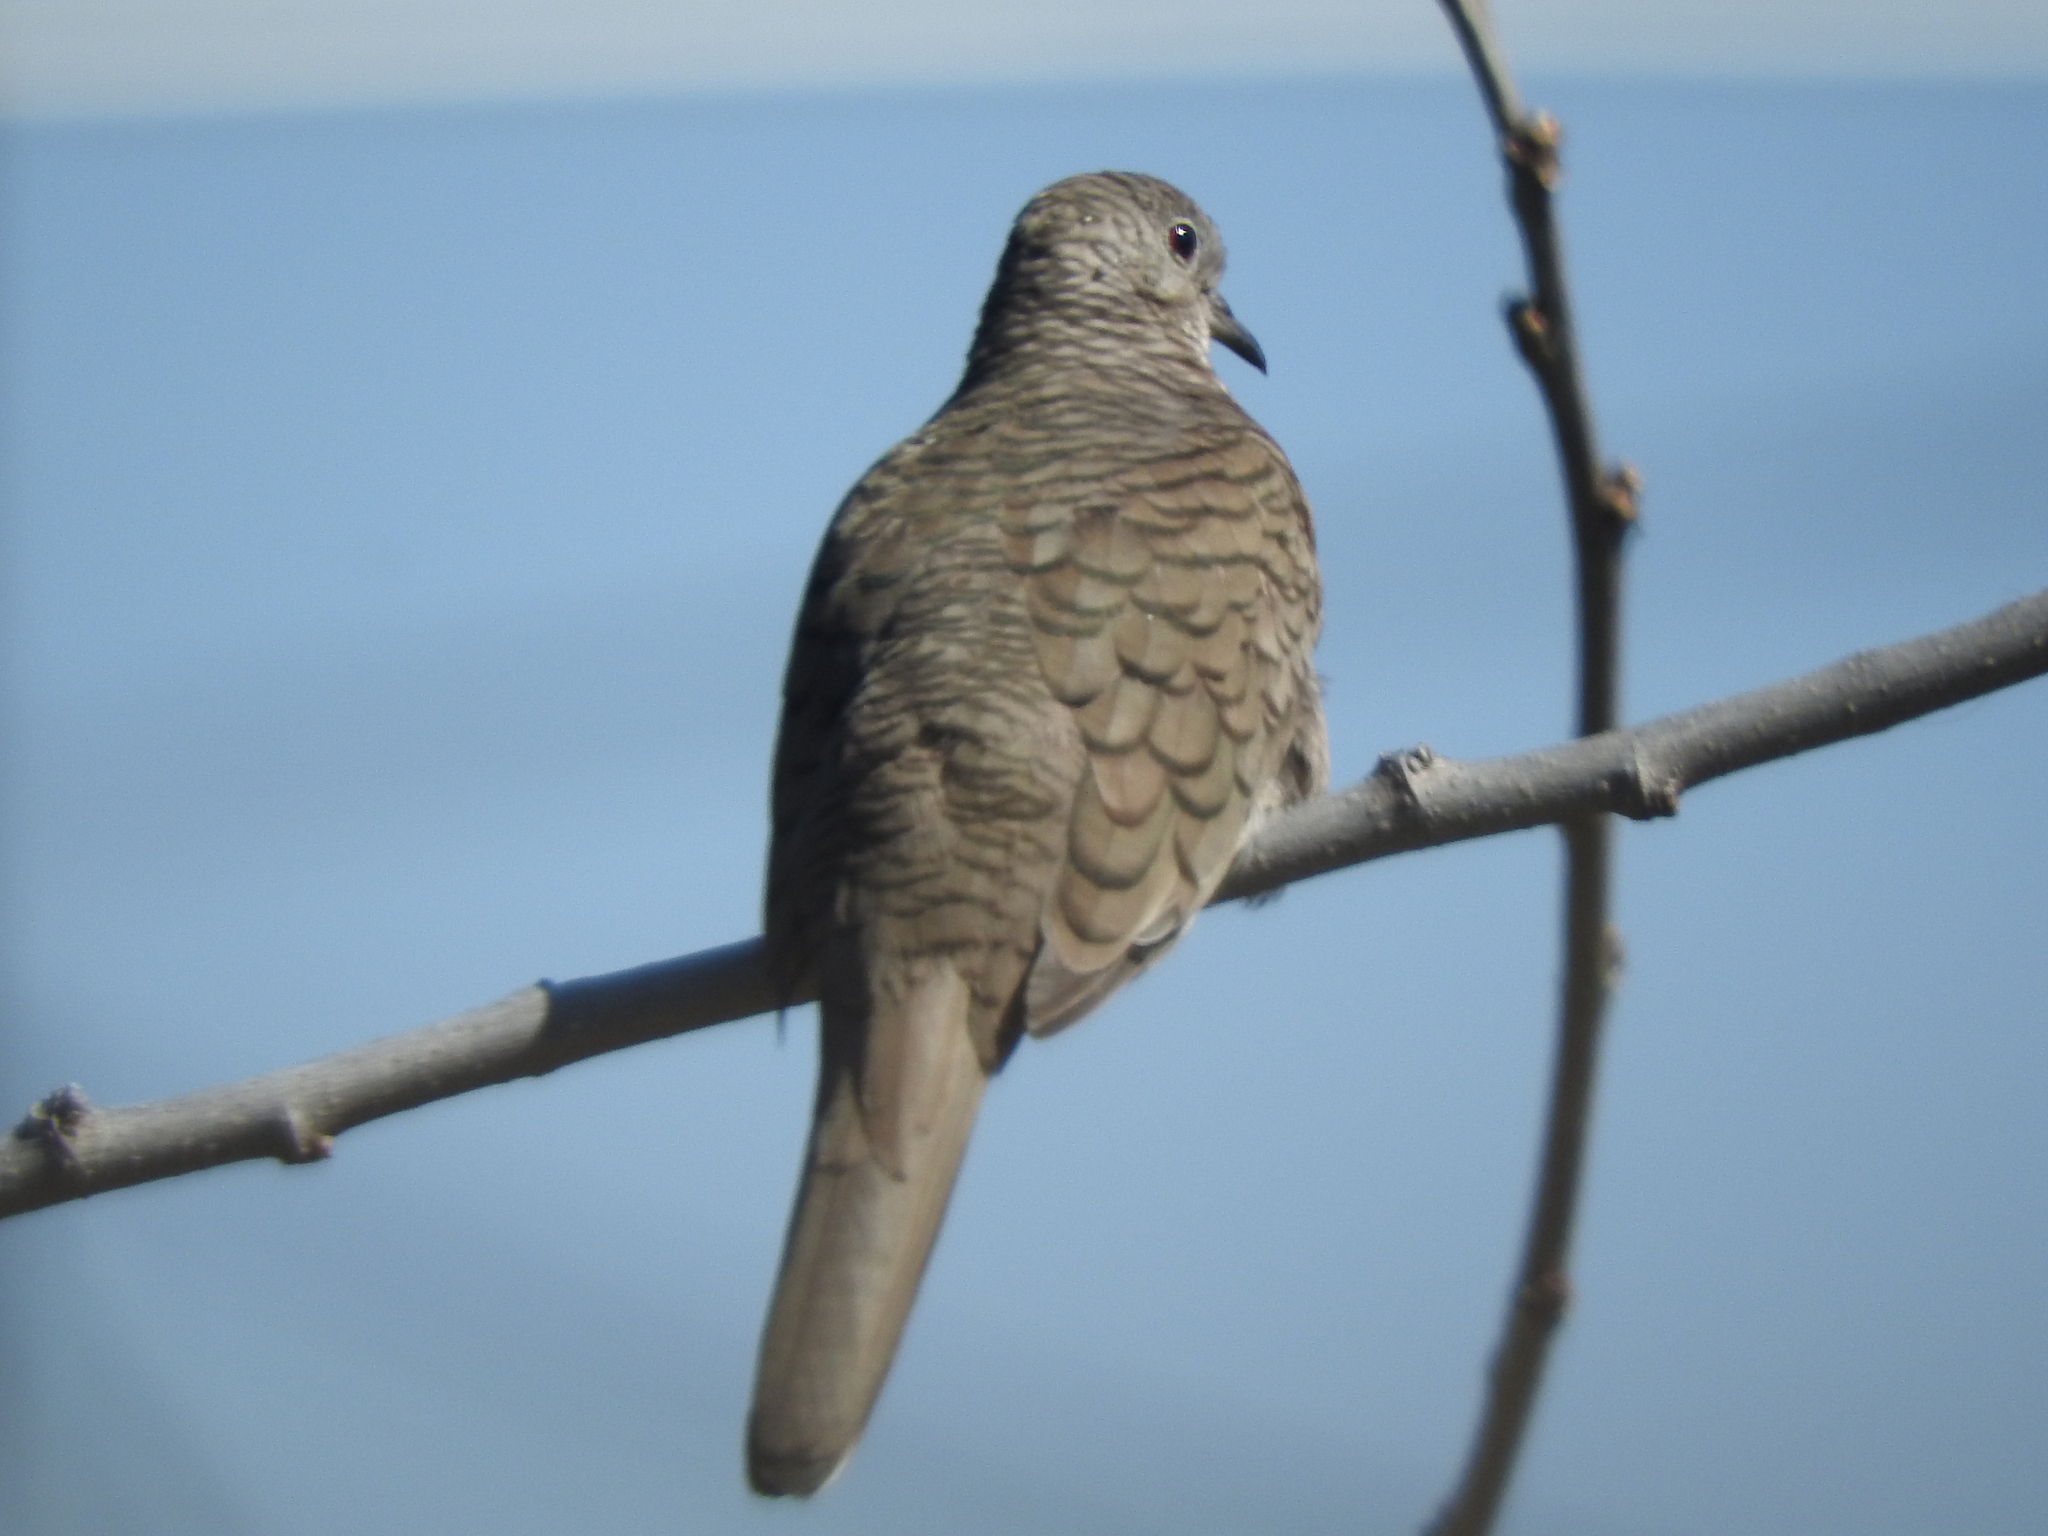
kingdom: Animalia
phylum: Chordata
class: Aves
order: Columbiformes
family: Columbidae
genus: Columbina
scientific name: Columbina inca
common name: Inca dove
